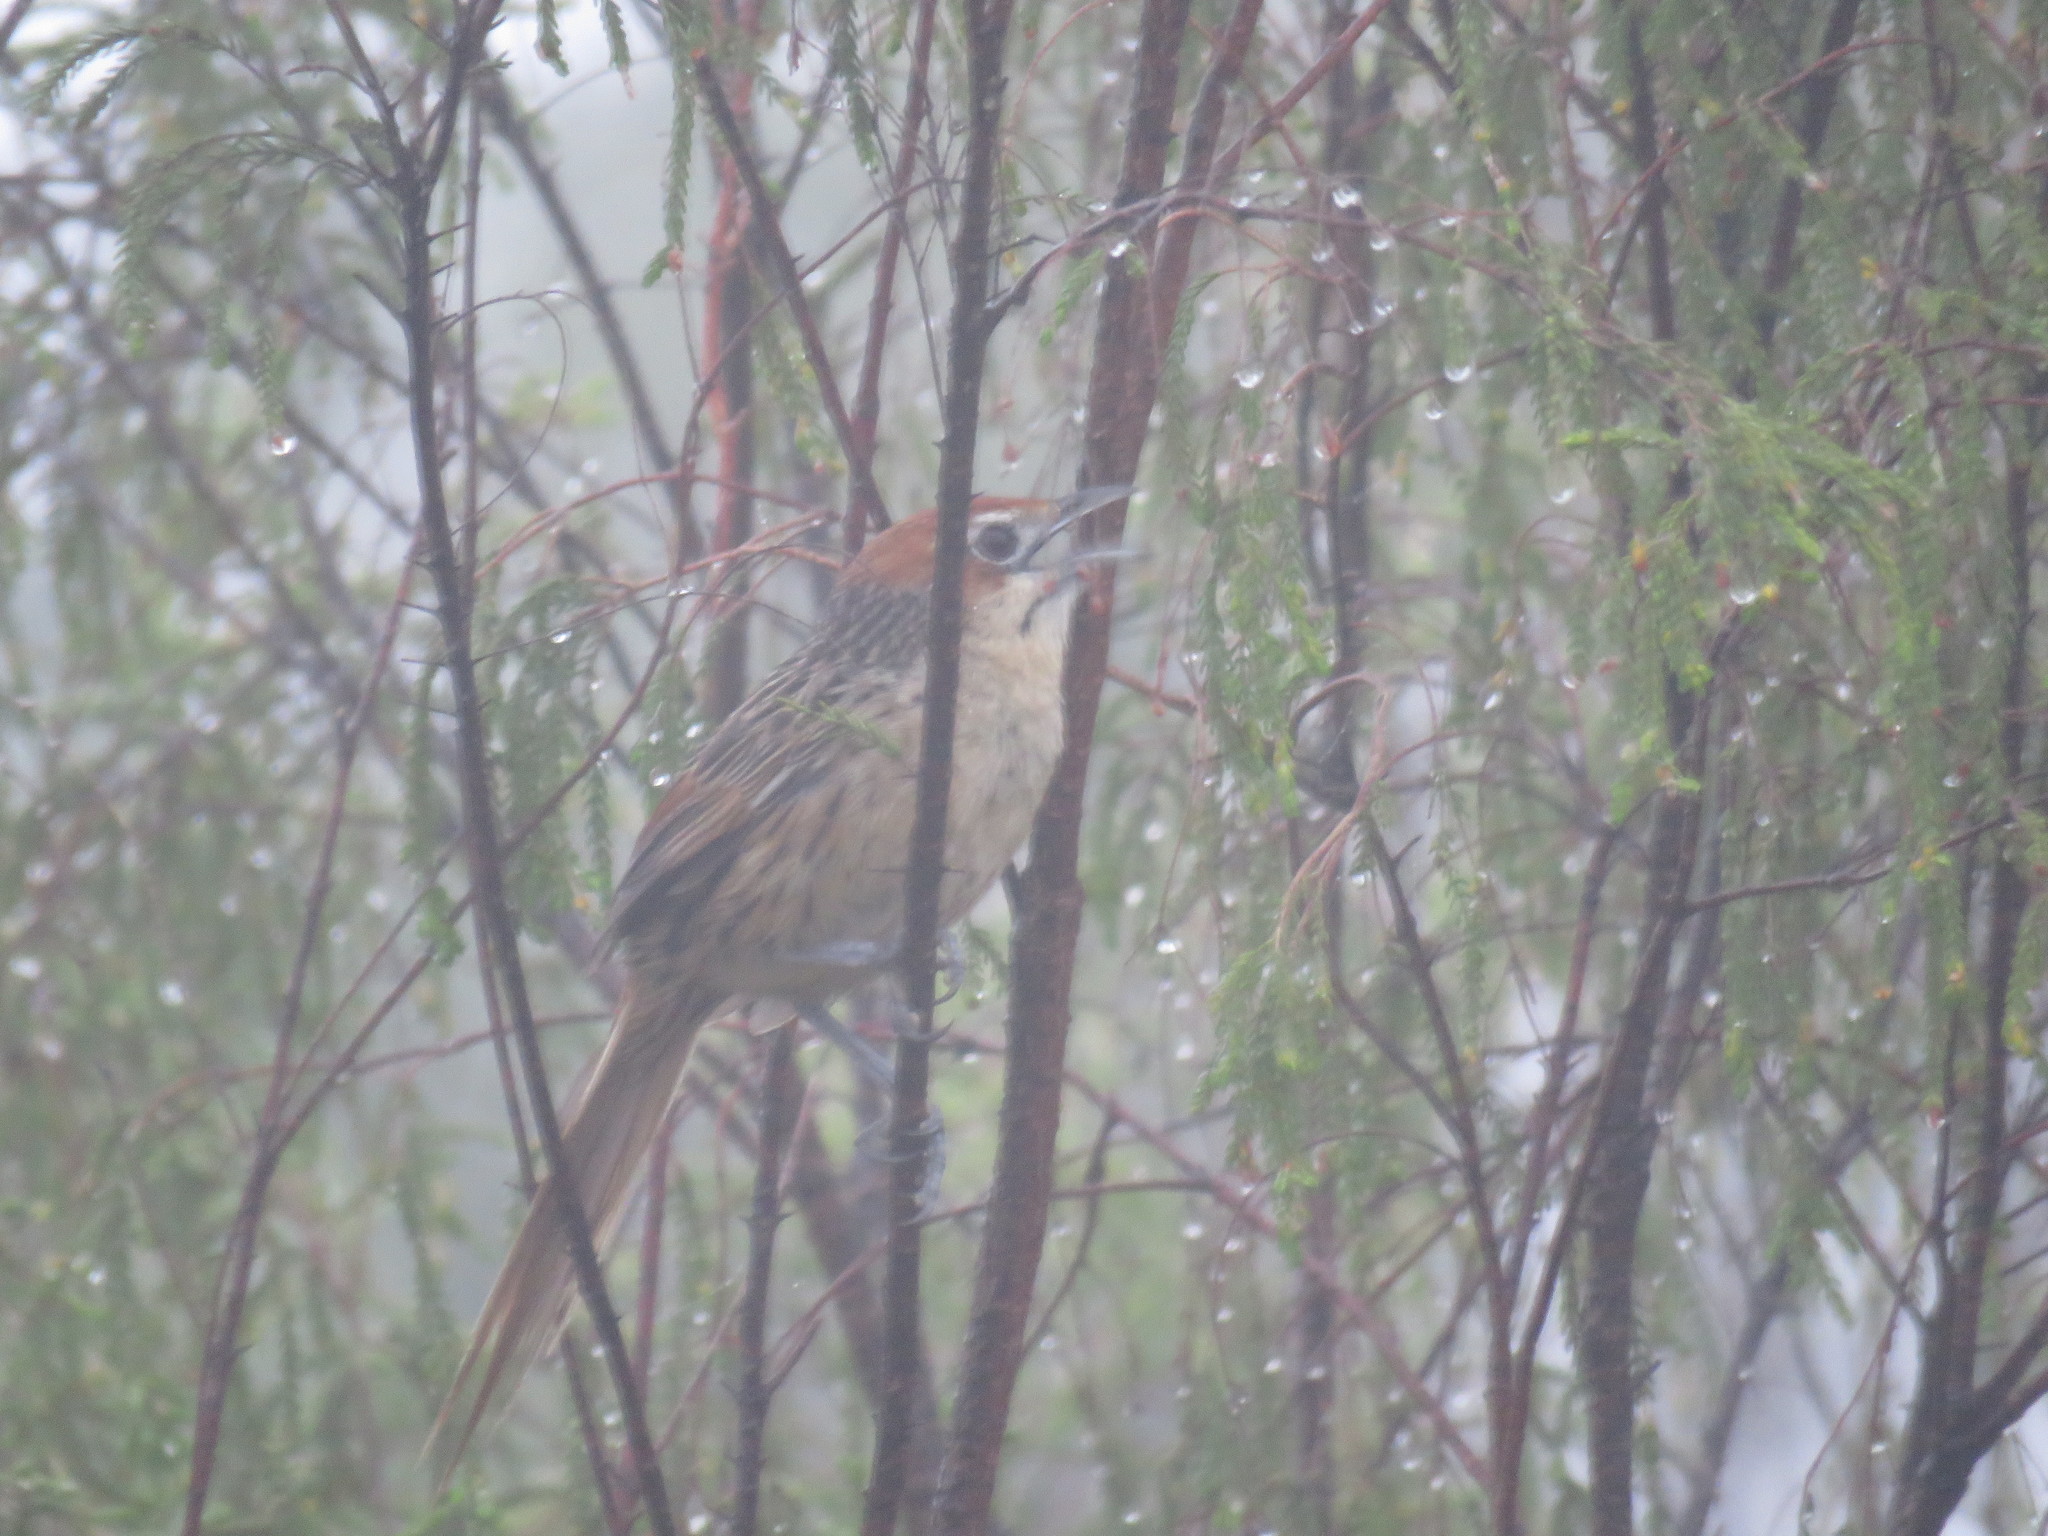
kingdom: Animalia
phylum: Chordata
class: Aves
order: Passeriformes
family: Macrosphenidae
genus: Sphenoeacus
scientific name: Sphenoeacus afer
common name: Cape grassbird
